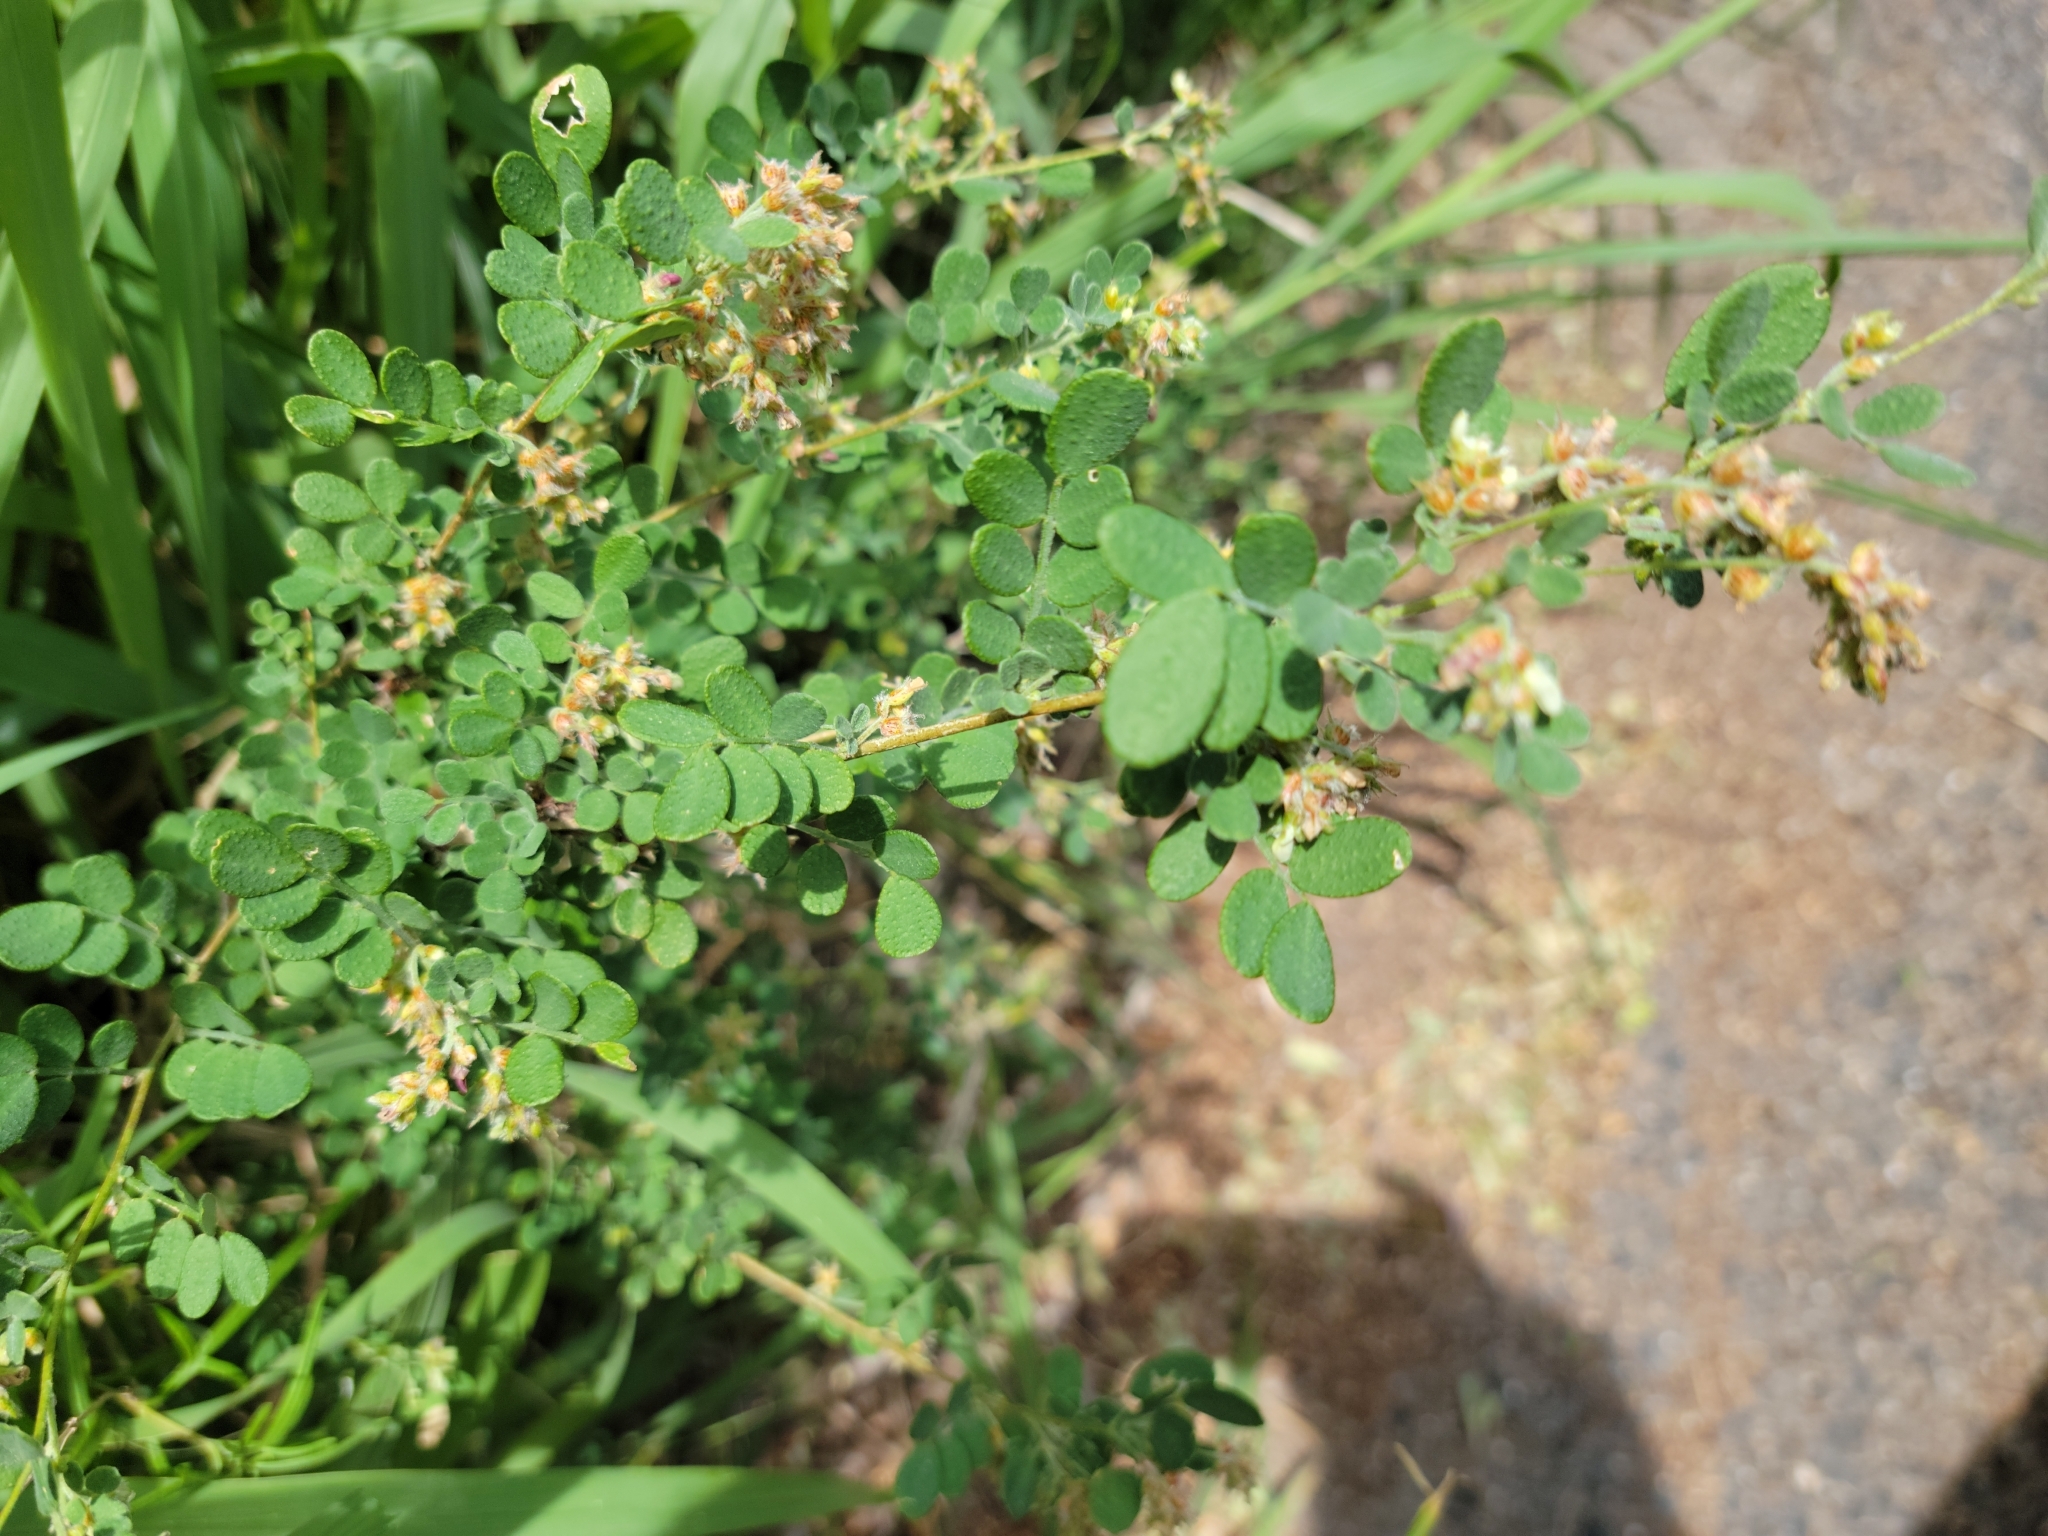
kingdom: Plantae
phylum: Tracheophyta
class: Magnoliopsida
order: Fabales
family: Fabaceae
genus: Dalea
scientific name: Dalea scandens
